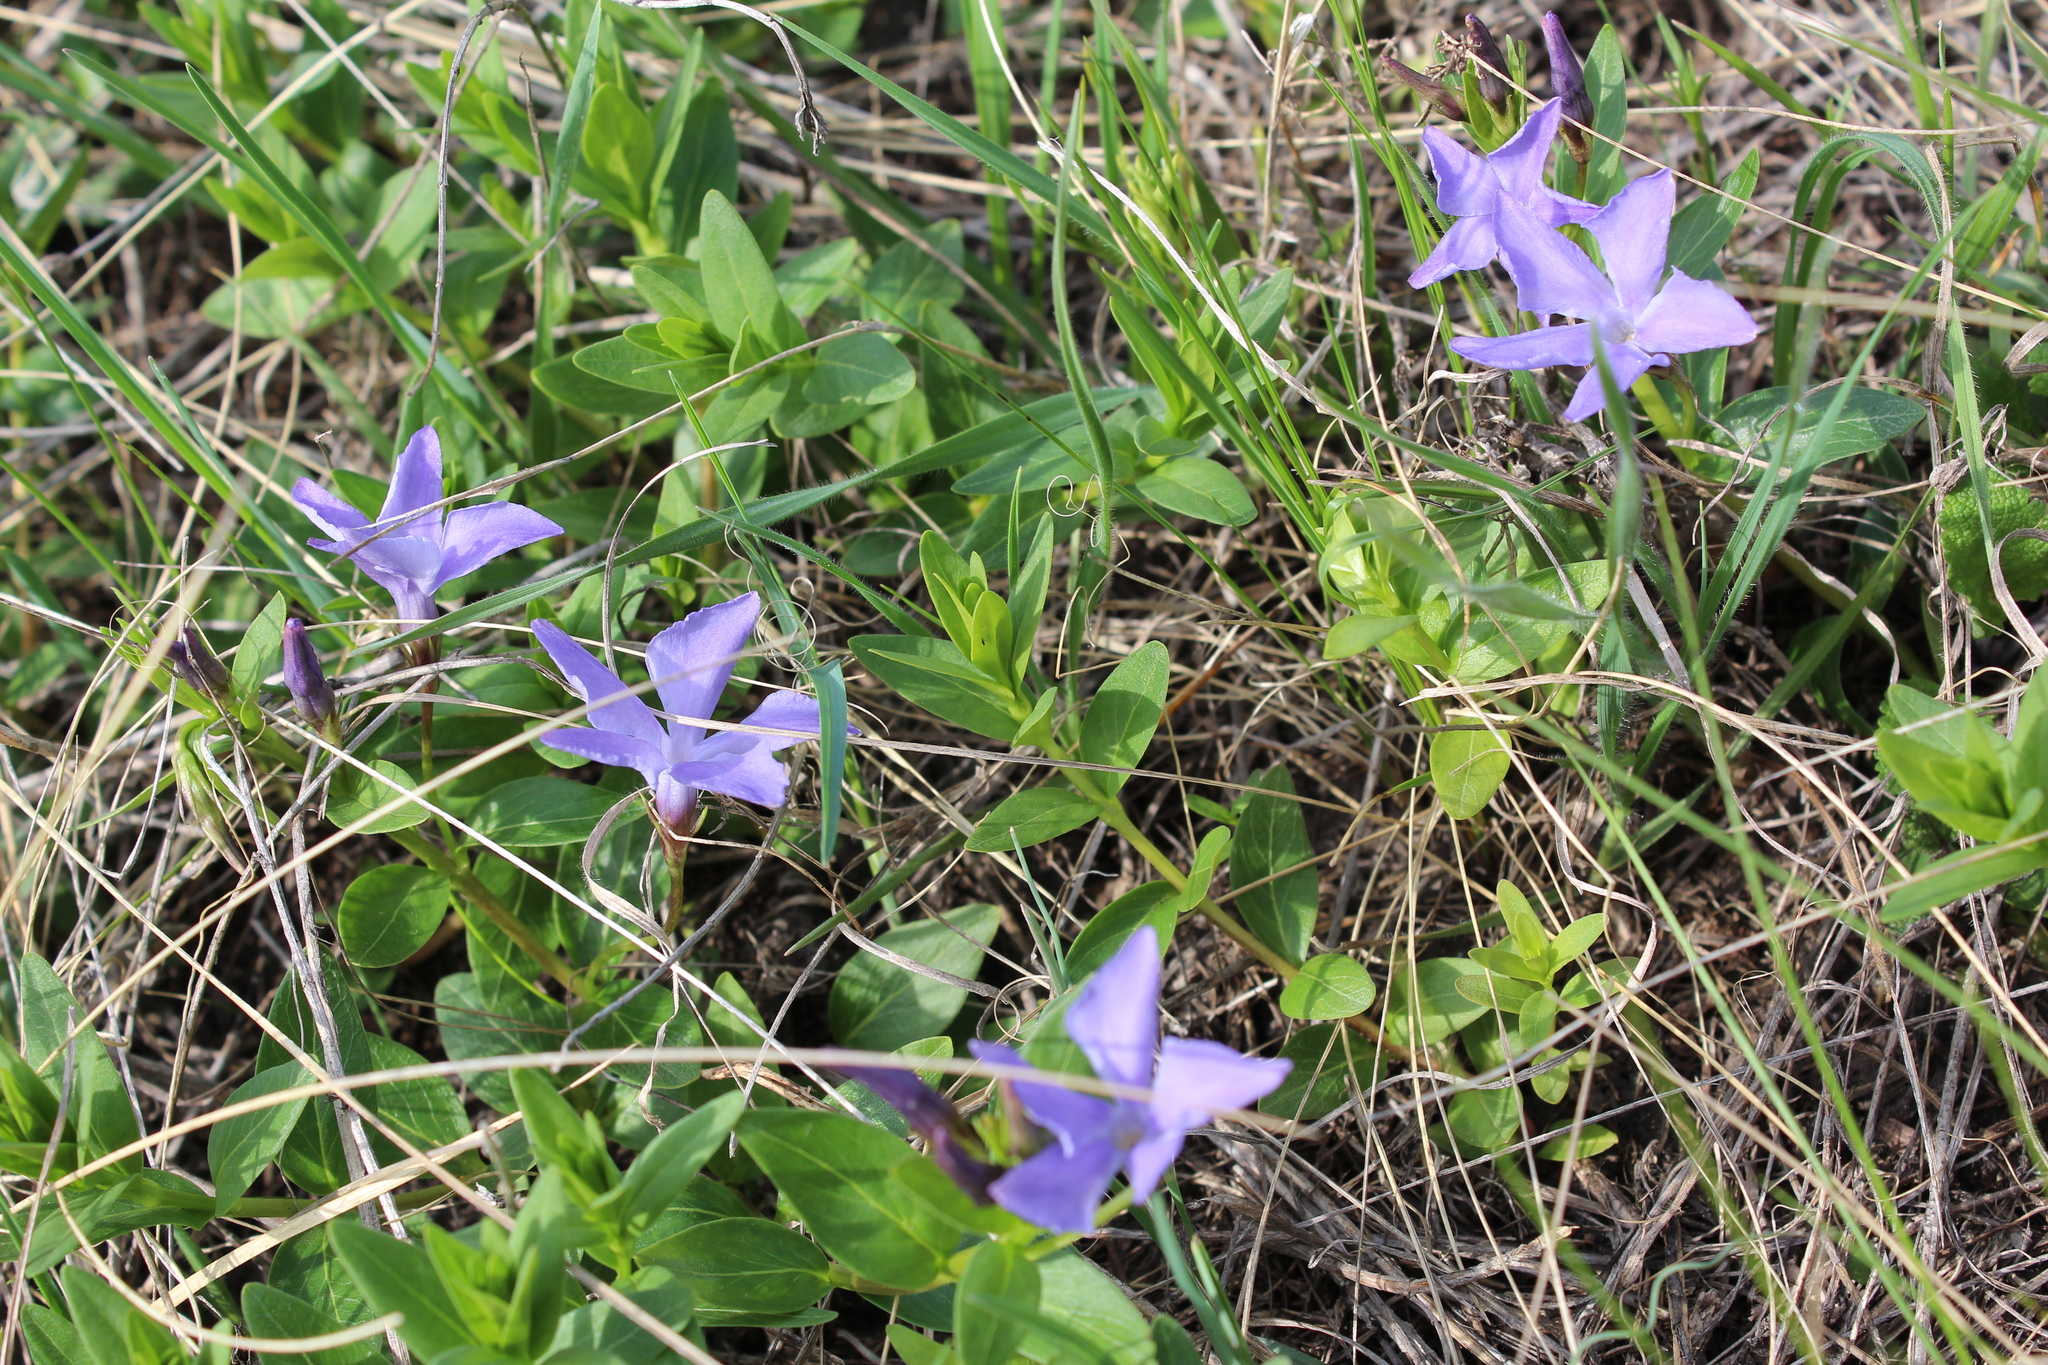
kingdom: Plantae
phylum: Tracheophyta
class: Magnoliopsida
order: Gentianales
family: Apocynaceae
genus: Vinca
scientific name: Vinca herbacea
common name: Herbaceous periwinkle
